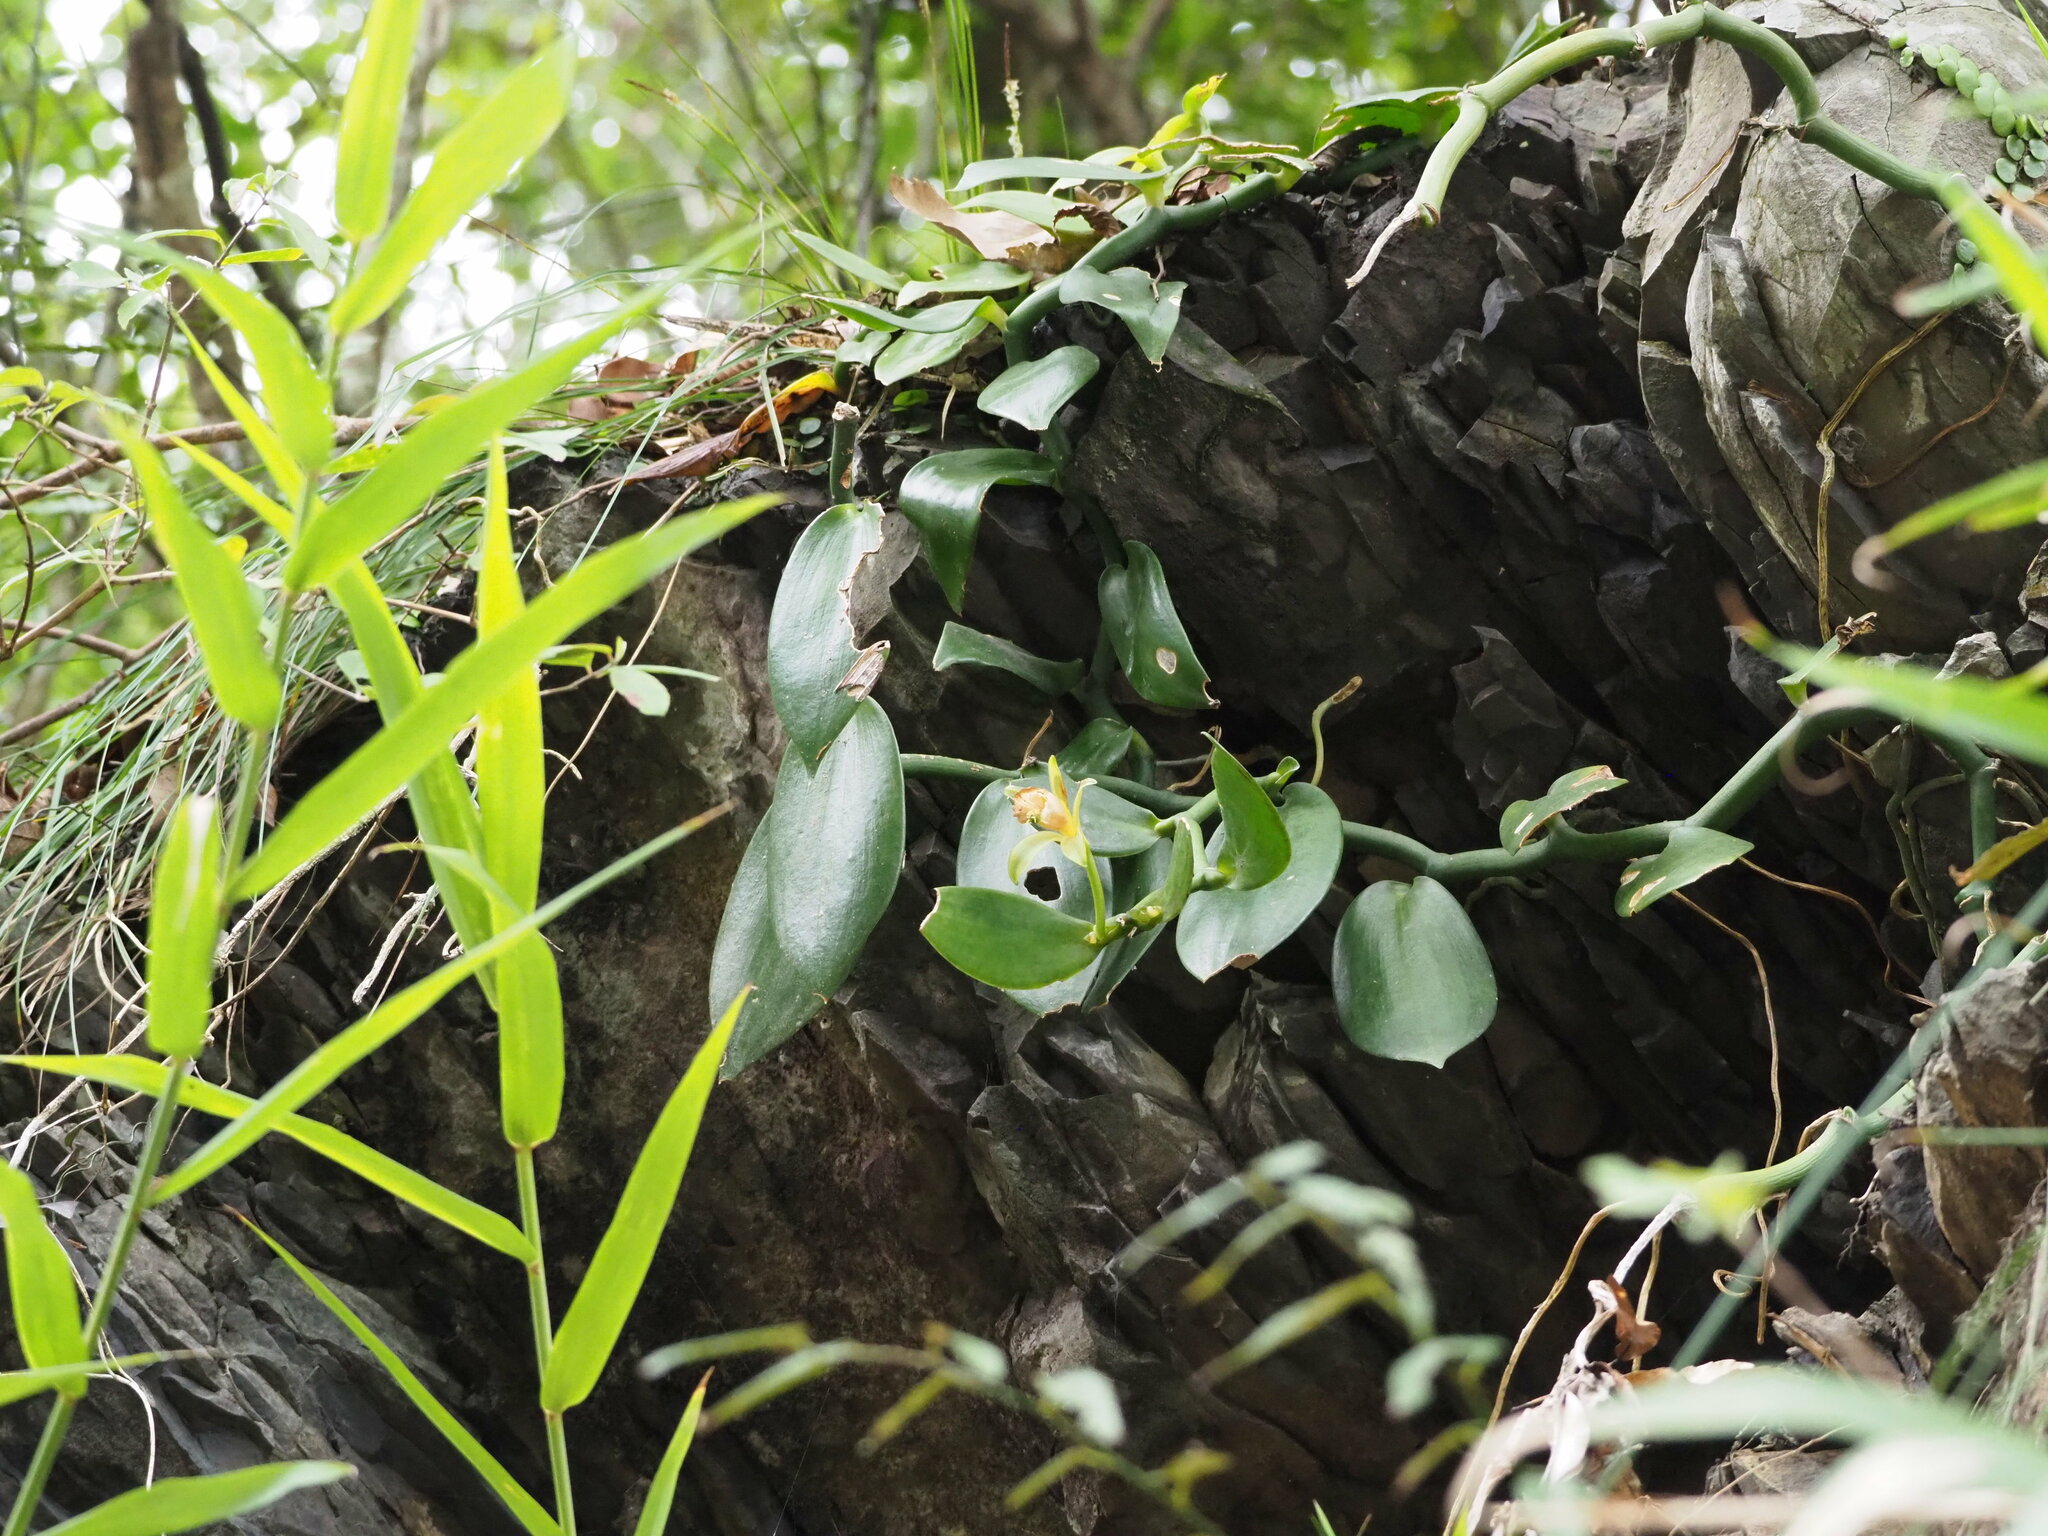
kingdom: Plantae
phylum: Tracheophyta
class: Liliopsida
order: Asparagales
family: Orchidaceae
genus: Vanilla
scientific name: Vanilla somae
